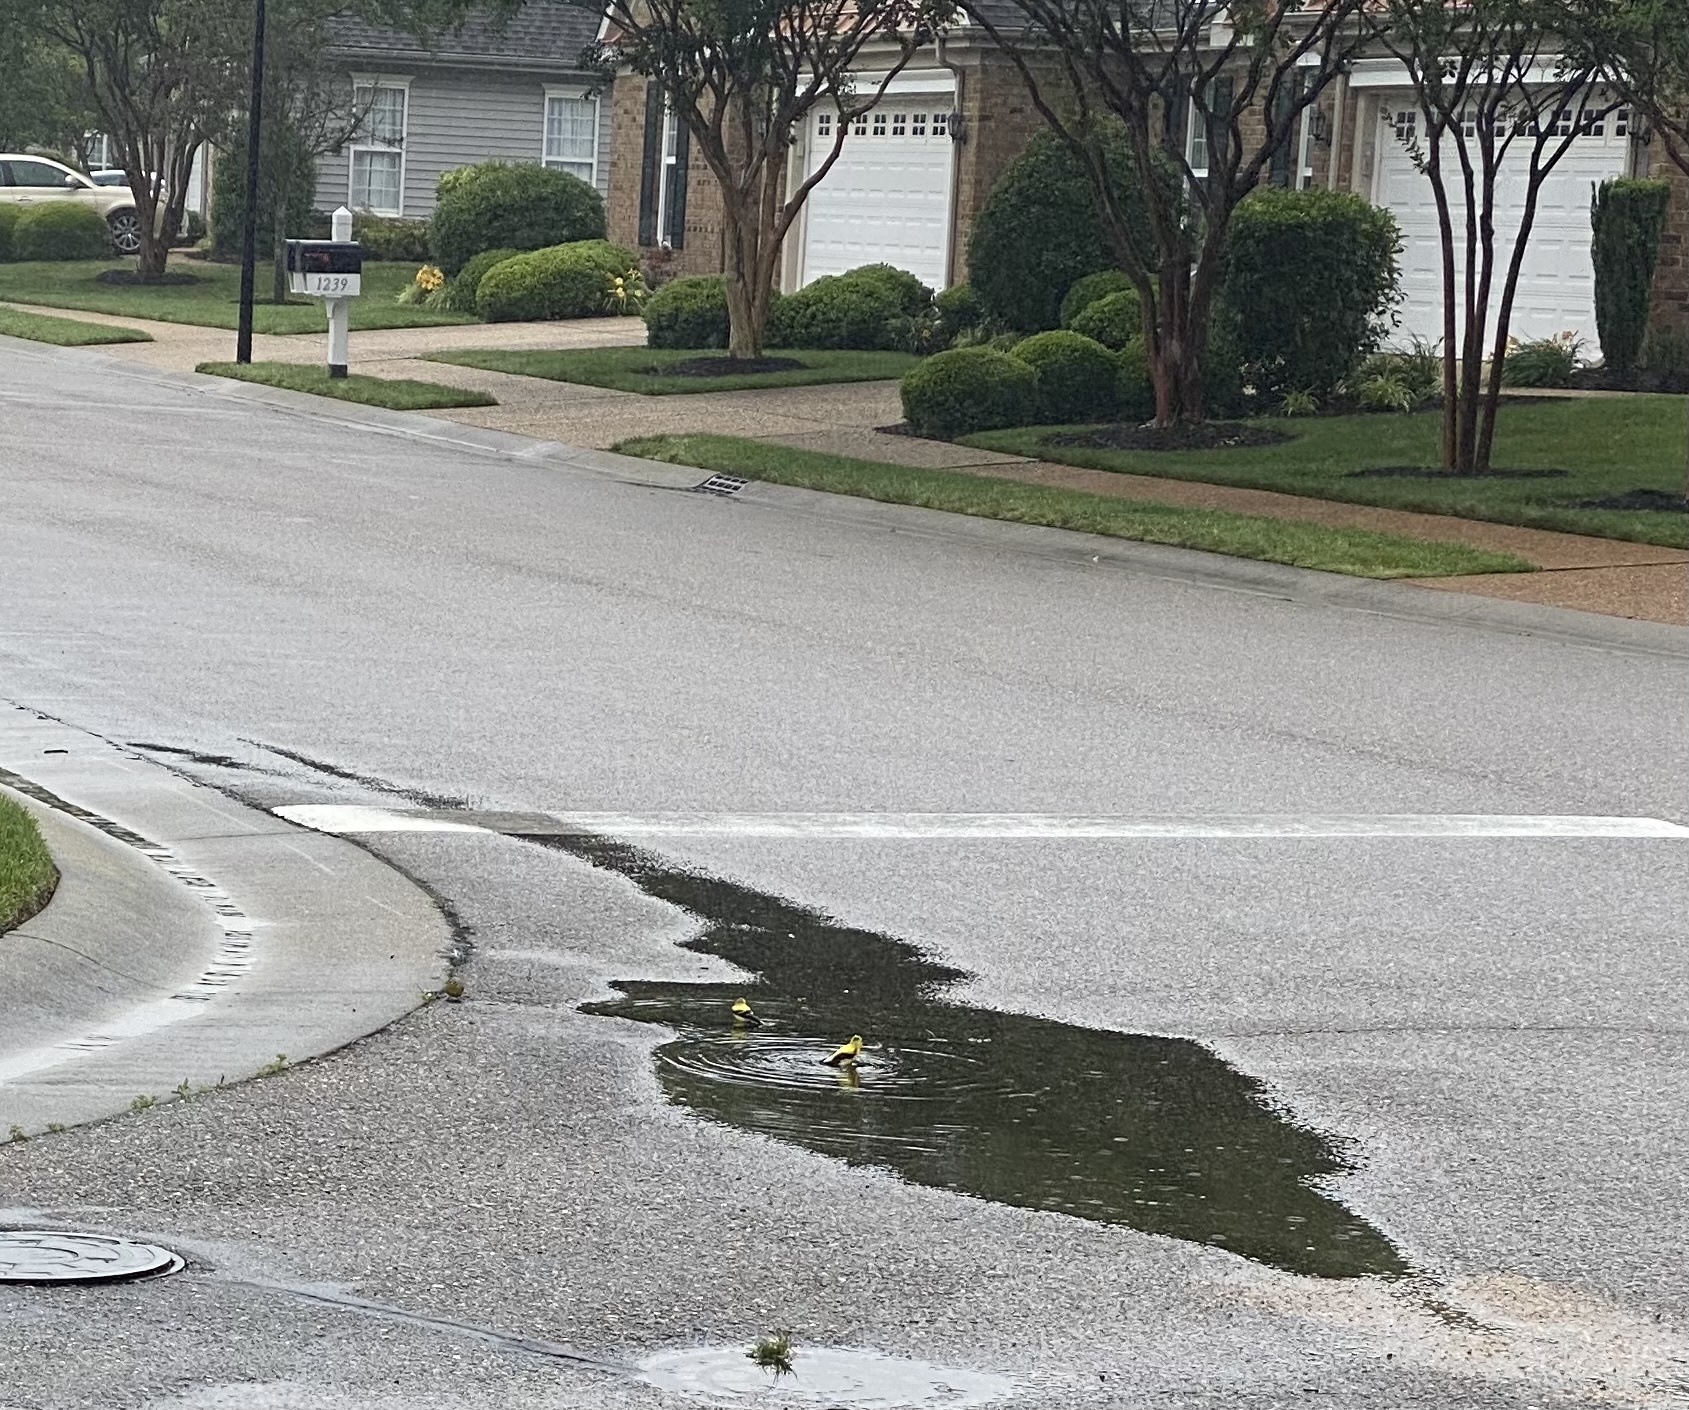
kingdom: Animalia
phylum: Chordata
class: Aves
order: Passeriformes
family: Fringillidae
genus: Spinus
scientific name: Spinus tristis
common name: American goldfinch
